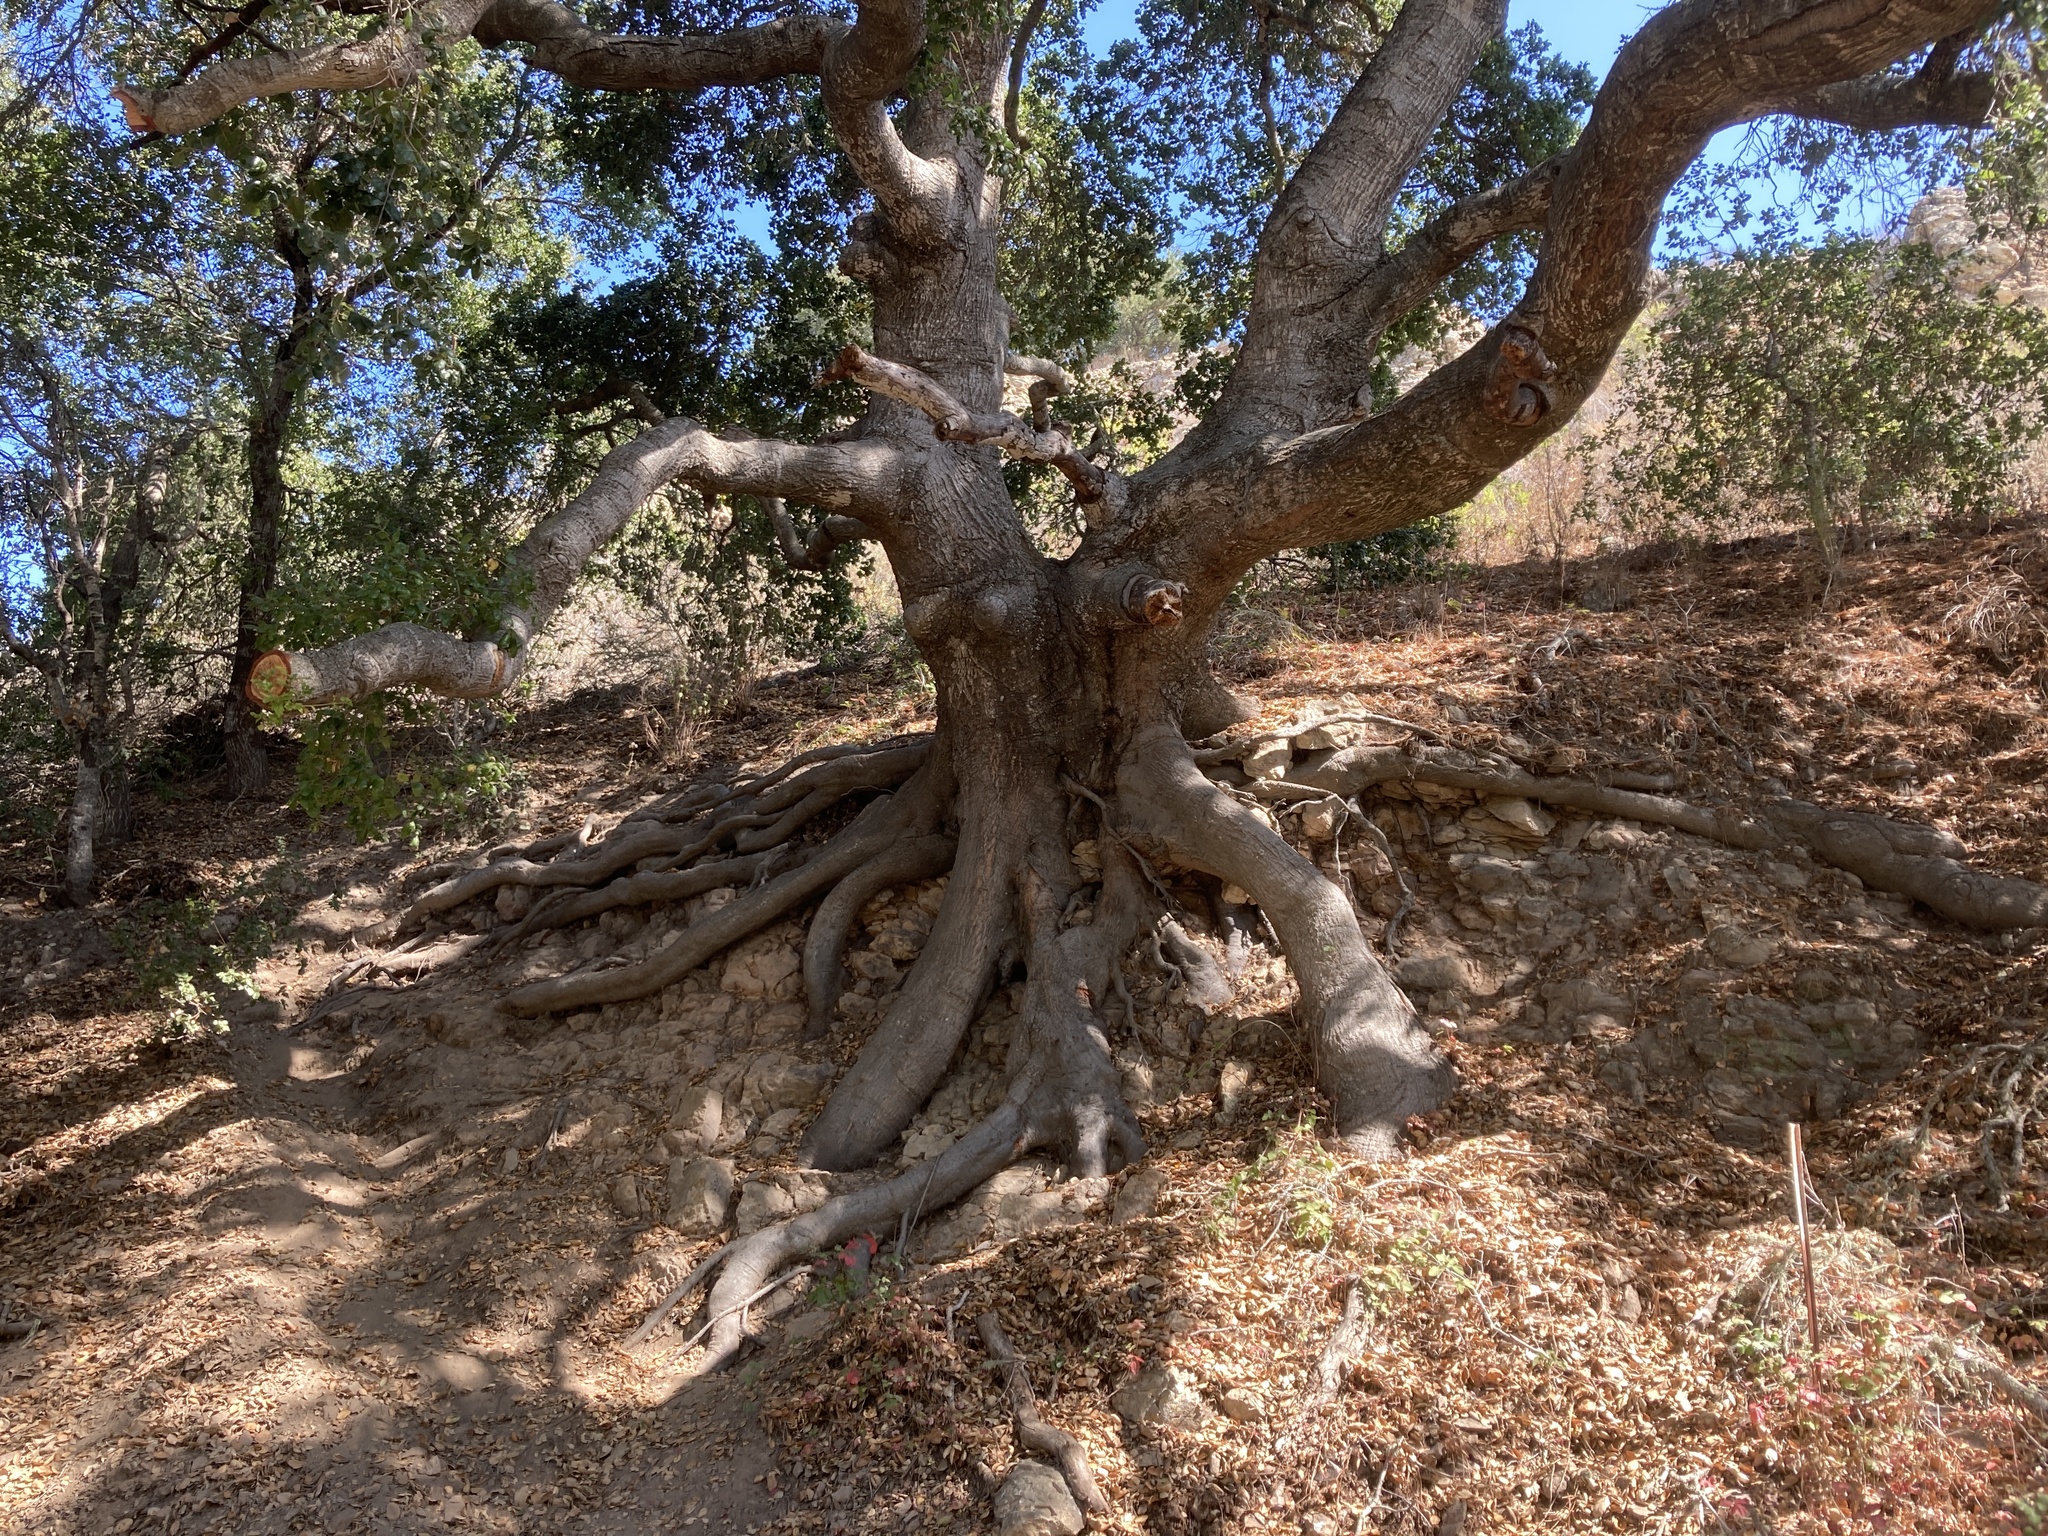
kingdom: Plantae
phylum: Tracheophyta
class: Magnoliopsida
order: Fagales
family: Fagaceae
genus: Quercus
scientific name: Quercus agrifolia
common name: California live oak
